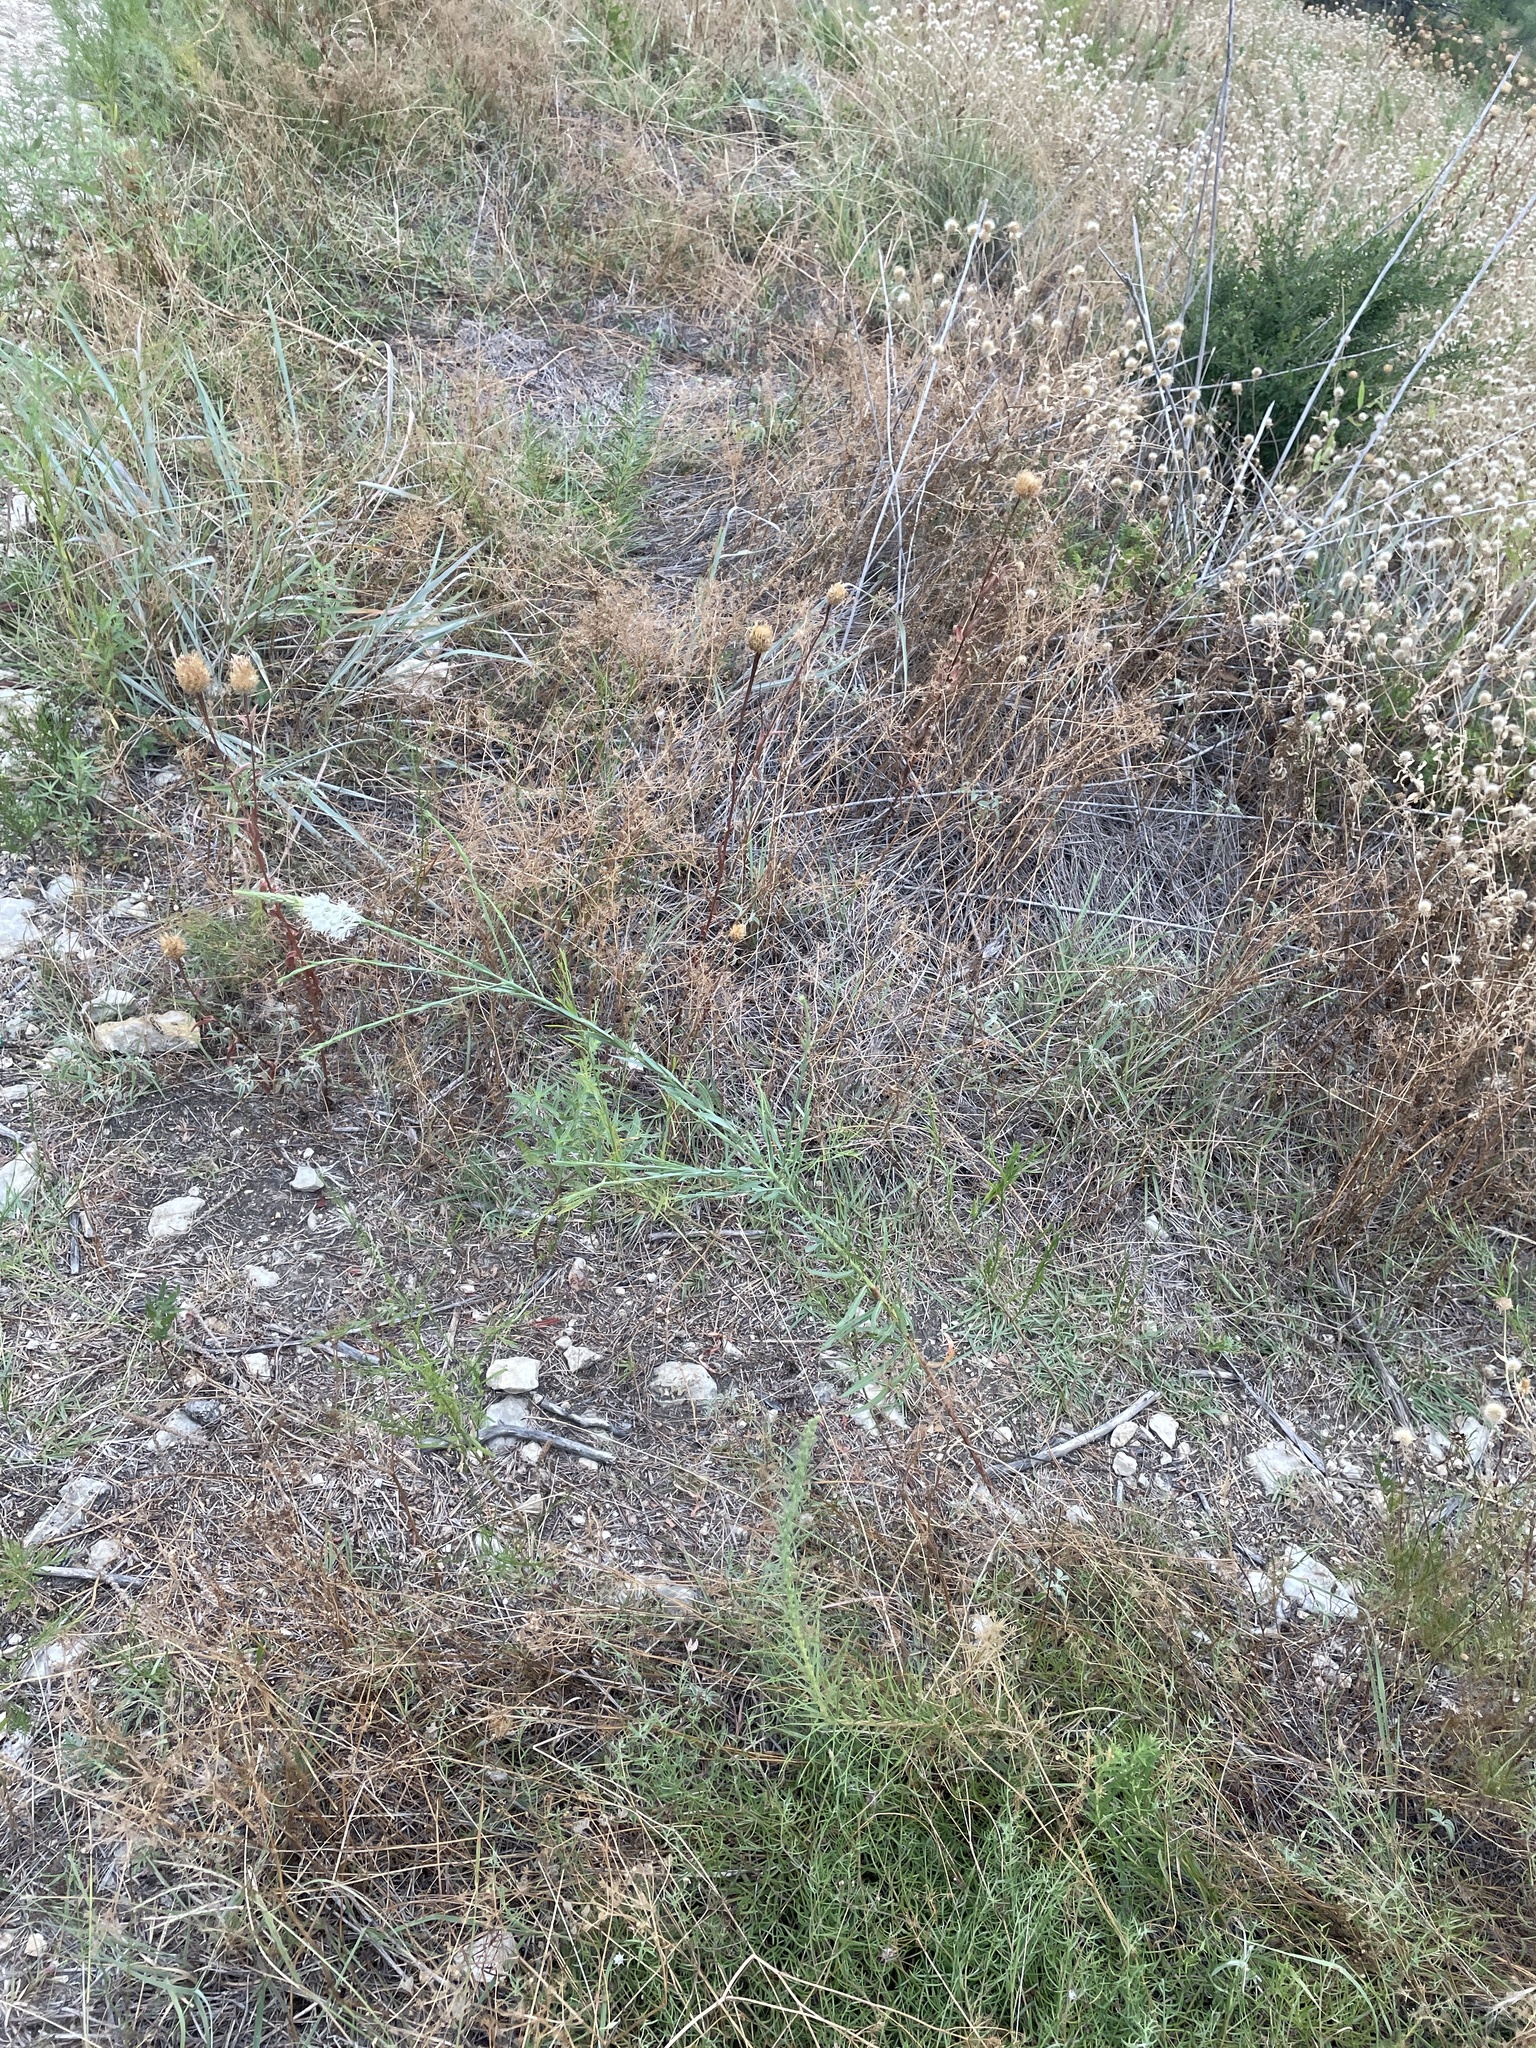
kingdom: Plantae
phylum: Tracheophyta
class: Magnoliopsida
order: Myrtales
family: Onagraceae
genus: Oenothera
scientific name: Oenothera glaucifolia
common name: False gaura
